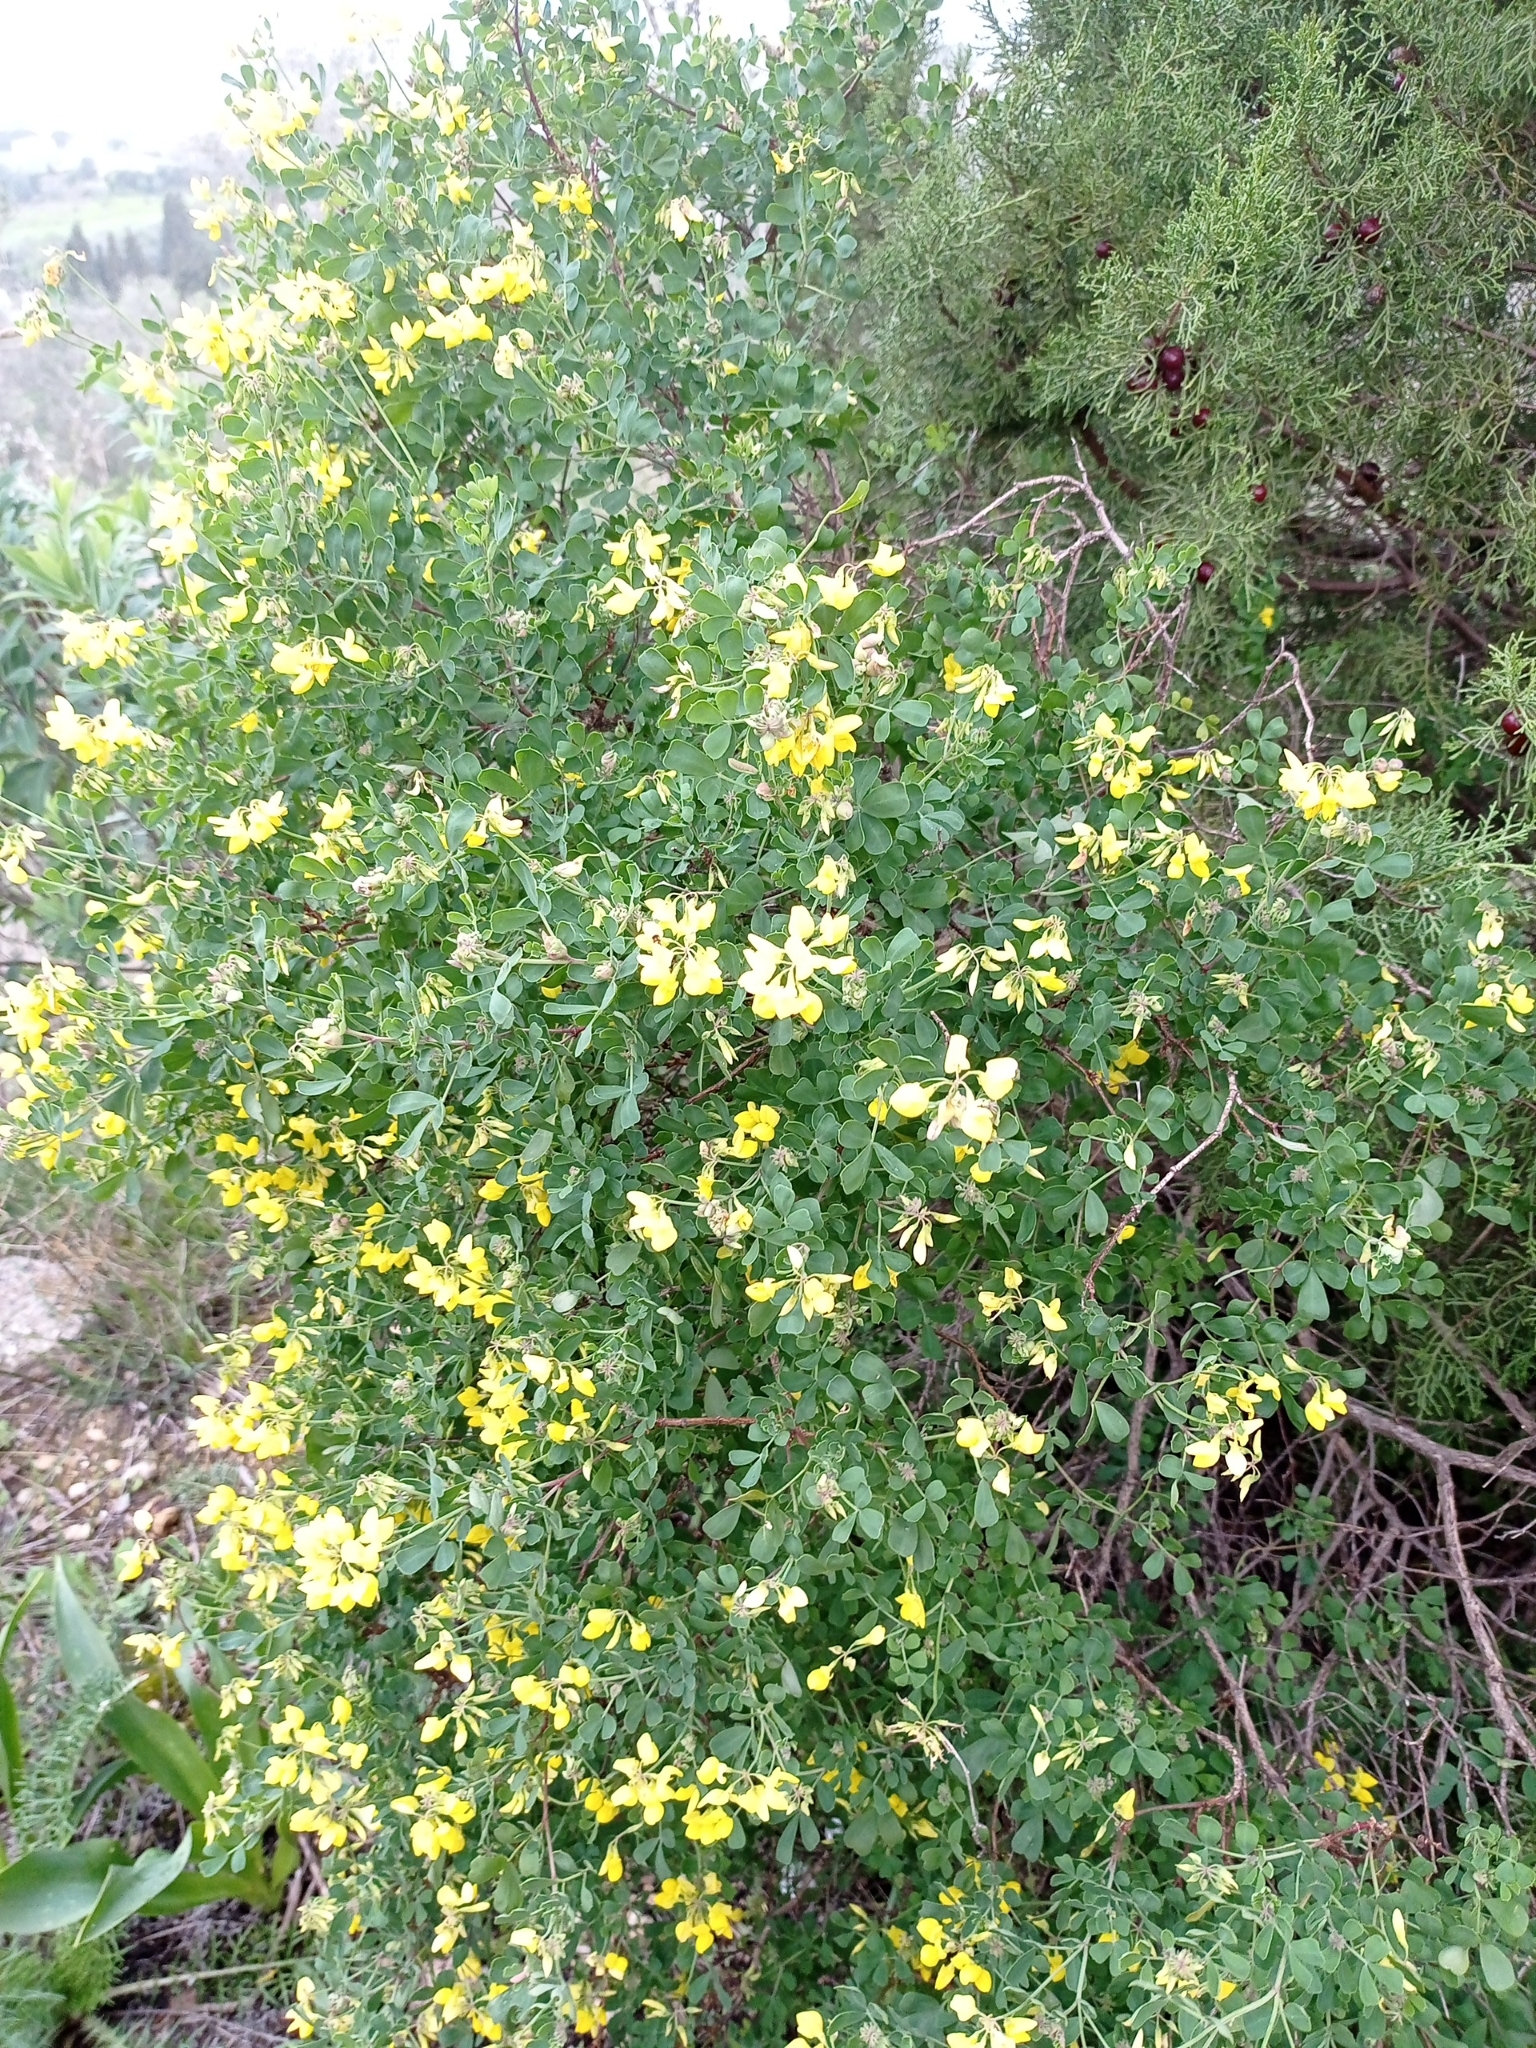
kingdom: Plantae
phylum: Tracheophyta
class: Magnoliopsida
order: Fabales
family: Fabaceae
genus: Coronilla
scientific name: Coronilla valentina
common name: Shrubby scorpion-vetch
